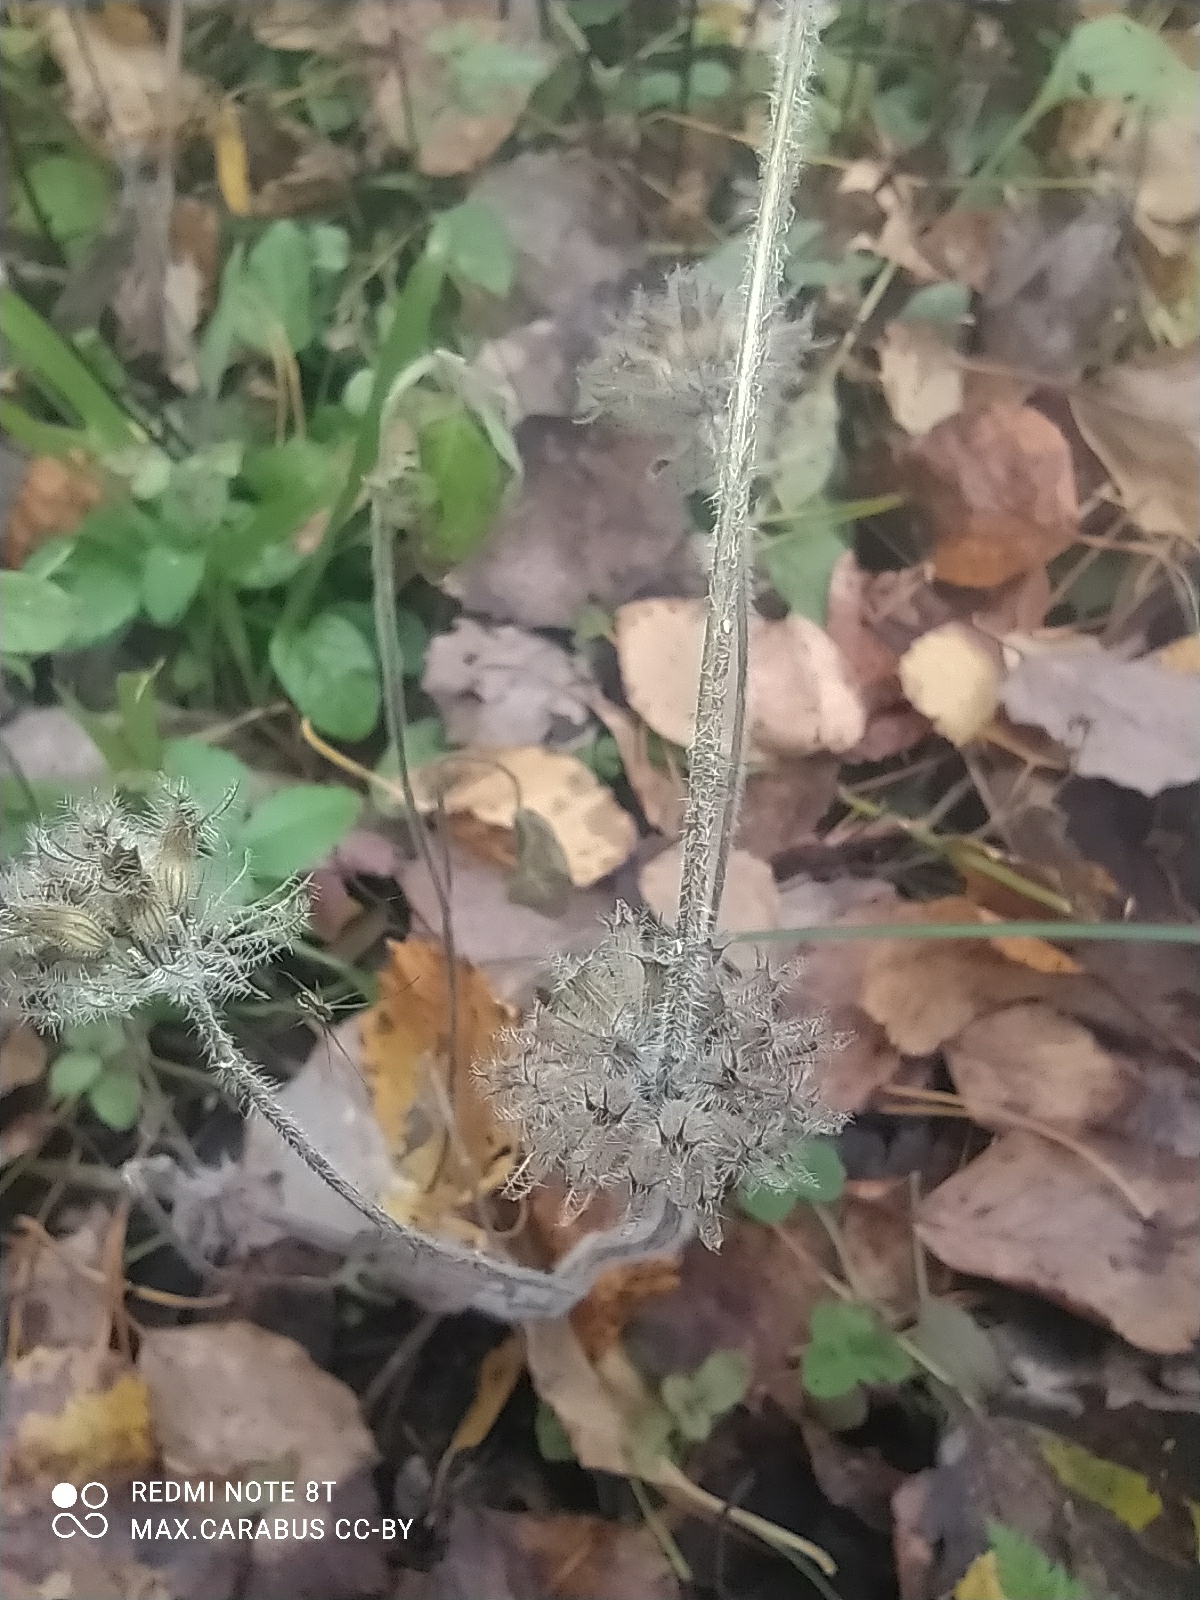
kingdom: Plantae
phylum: Tracheophyta
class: Magnoliopsida
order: Lamiales
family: Lamiaceae
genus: Clinopodium
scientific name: Clinopodium vulgare
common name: Wild basil
